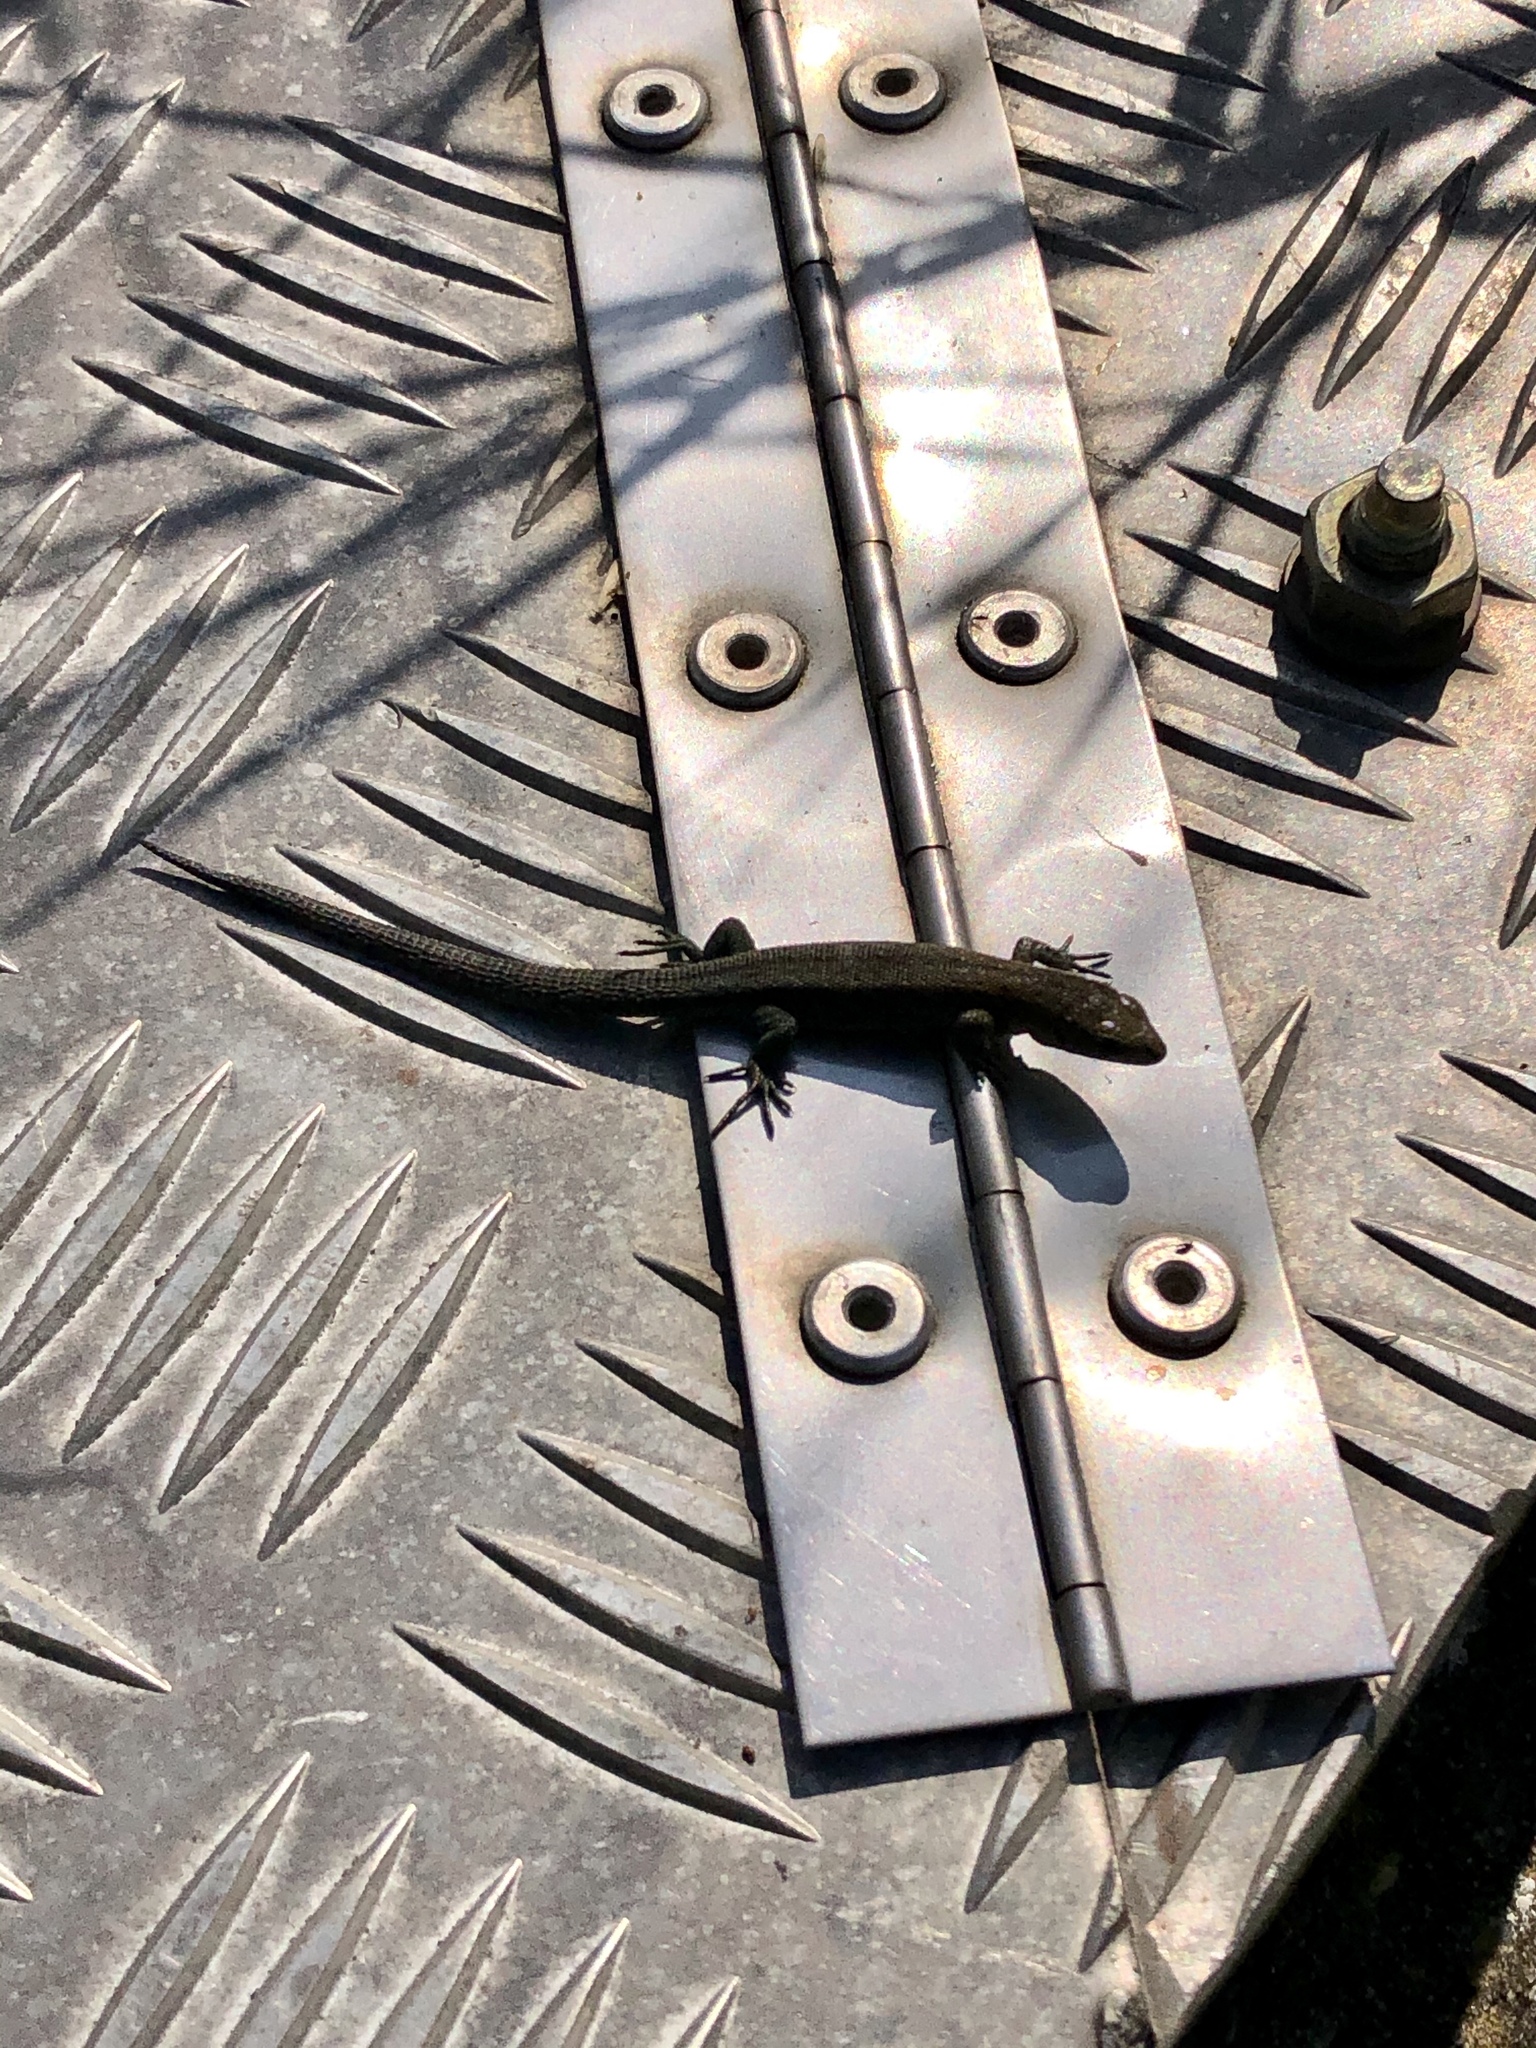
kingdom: Animalia
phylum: Chordata
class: Squamata
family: Lacertidae
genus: Zootoca
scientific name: Zootoca vivipara
